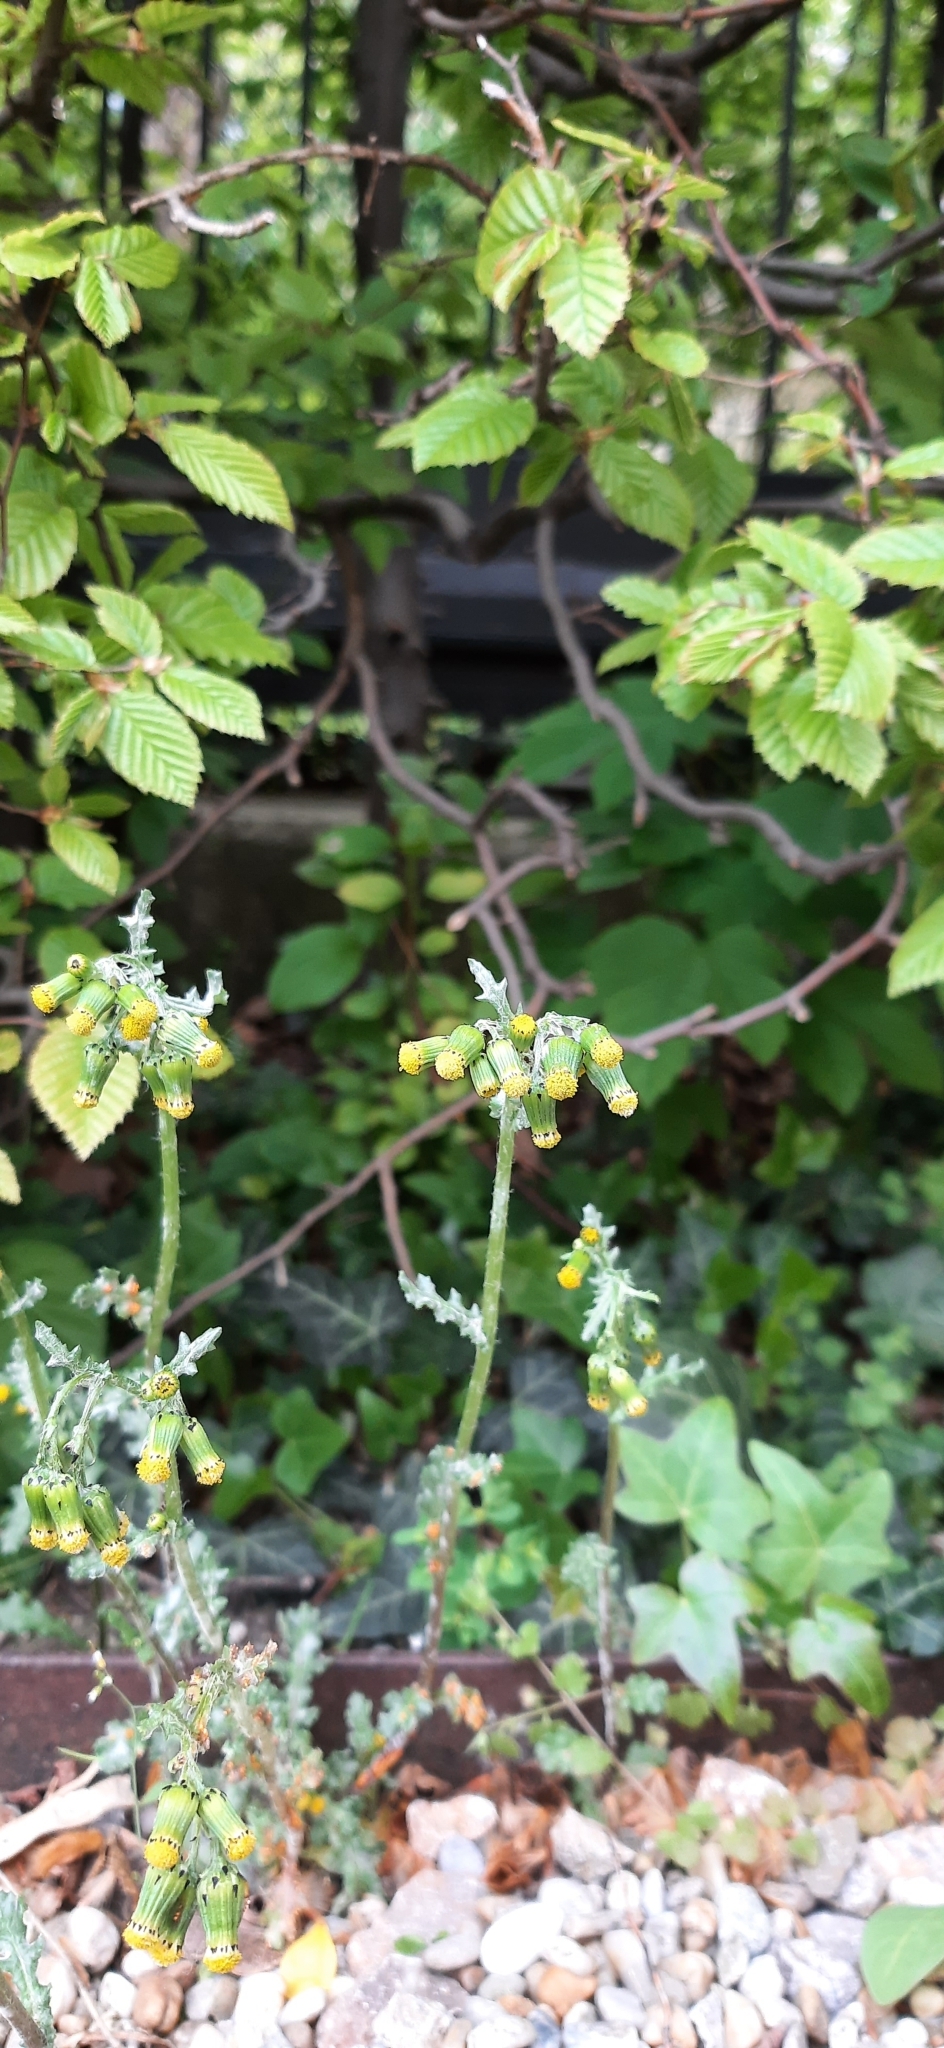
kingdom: Plantae
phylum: Tracheophyta
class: Magnoliopsida
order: Asterales
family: Asteraceae
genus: Senecio
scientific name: Senecio vulgaris
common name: Old-man-in-the-spring
